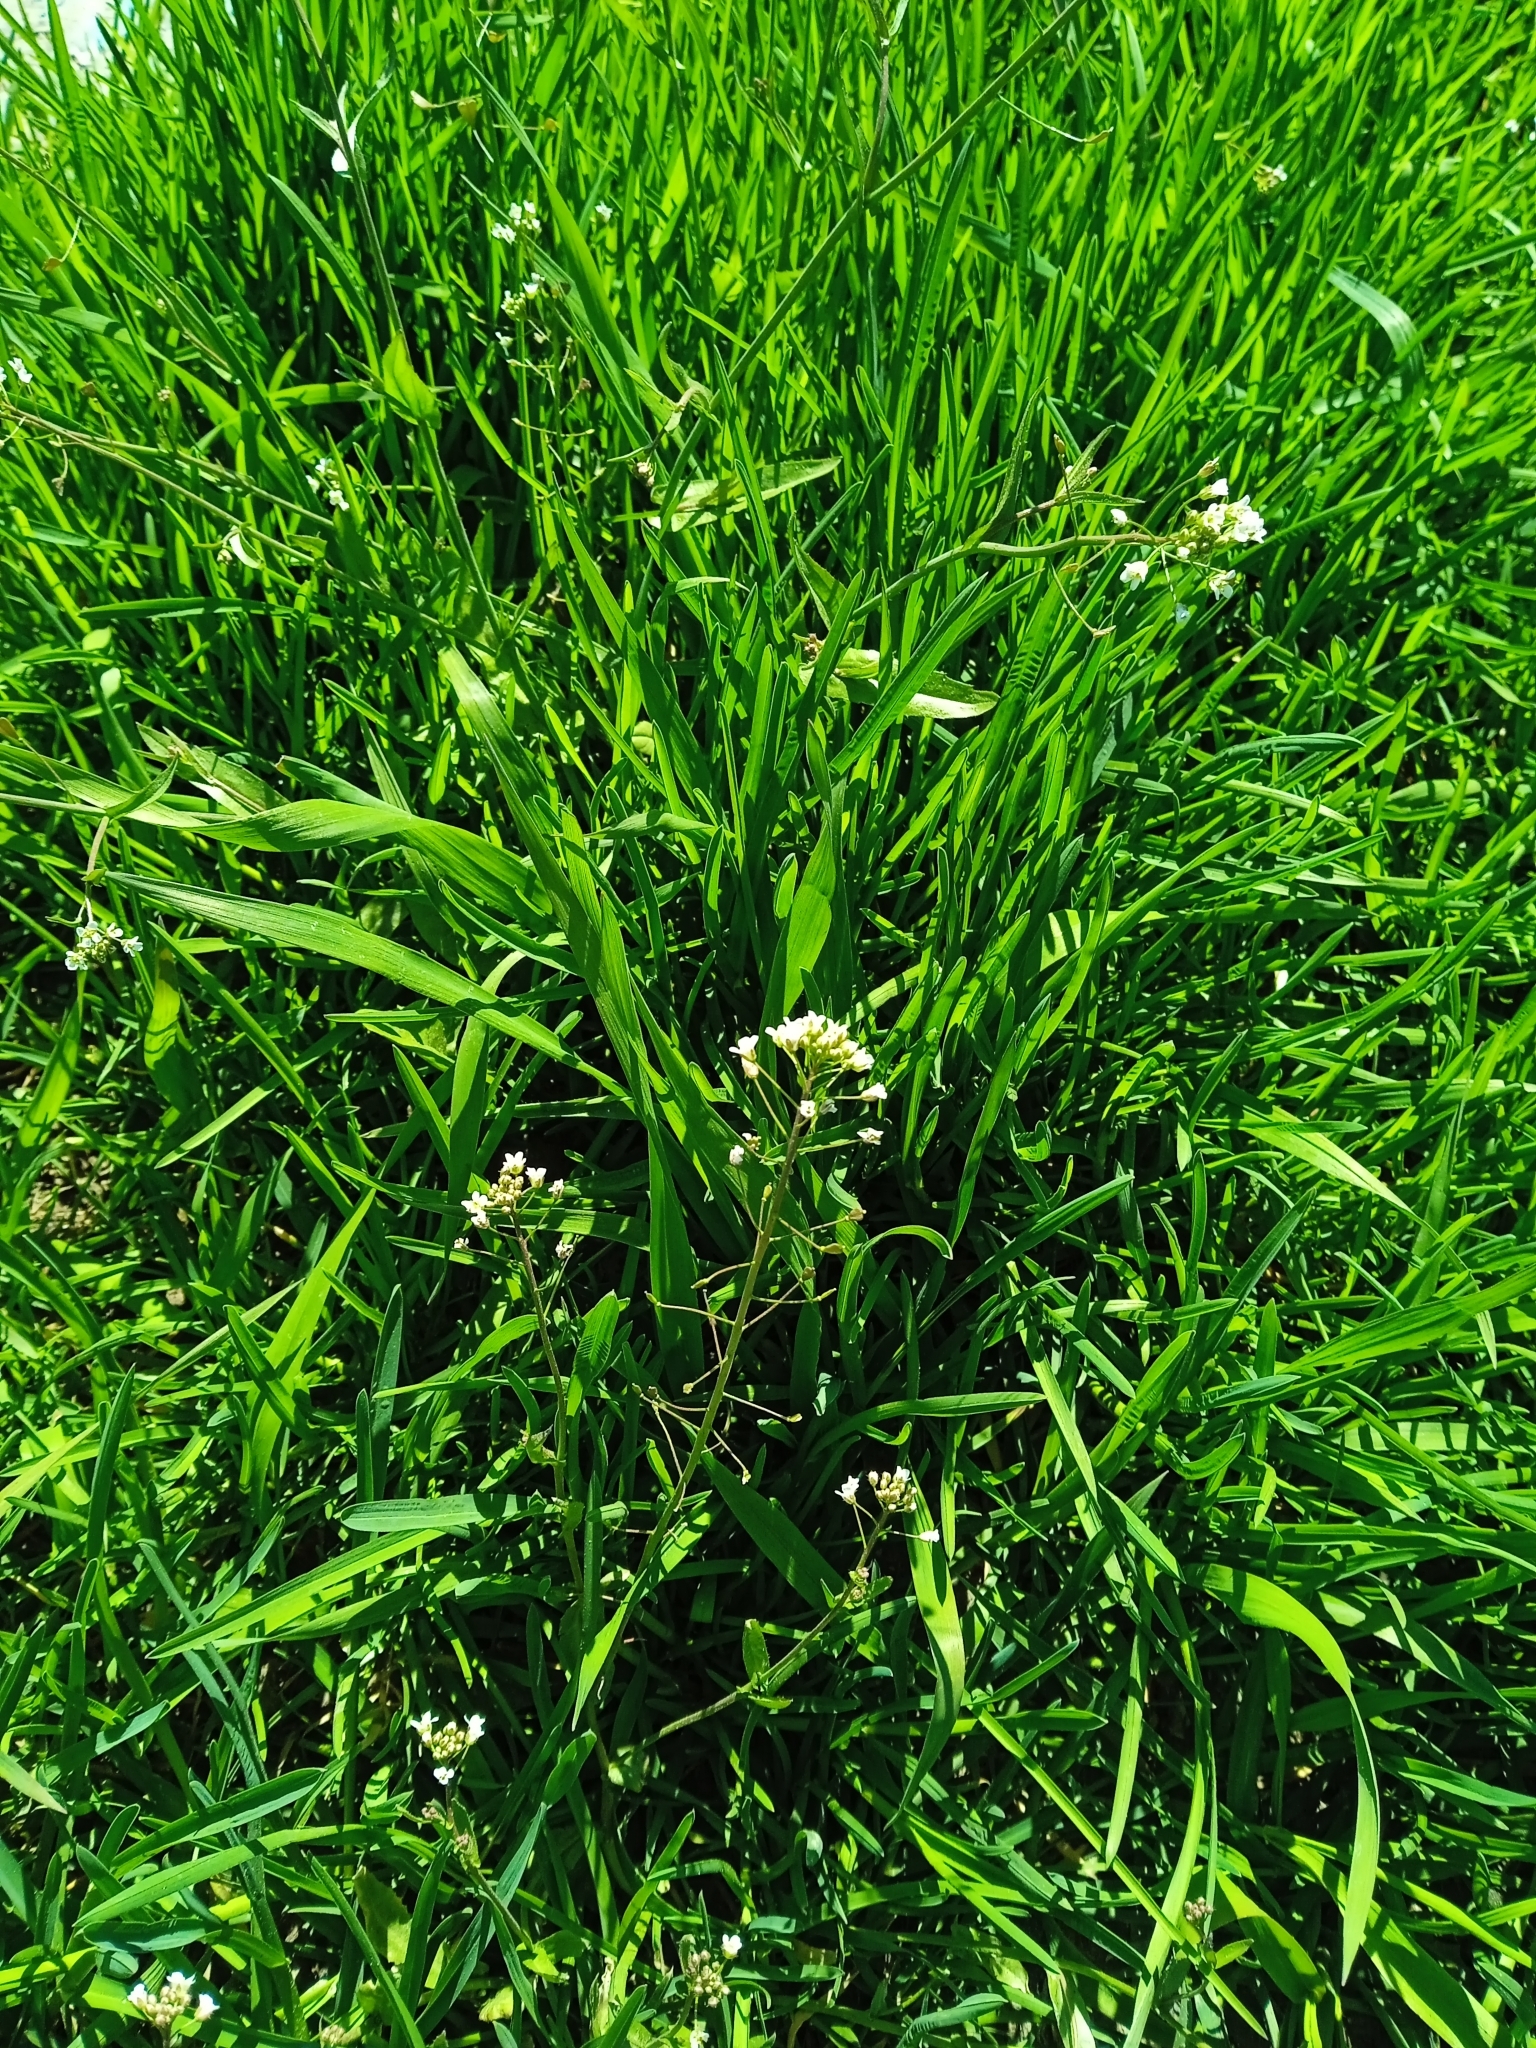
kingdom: Plantae
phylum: Tracheophyta
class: Magnoliopsida
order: Brassicales
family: Brassicaceae
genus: Capsella
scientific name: Capsella bursa-pastoris
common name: Shepherd's purse
